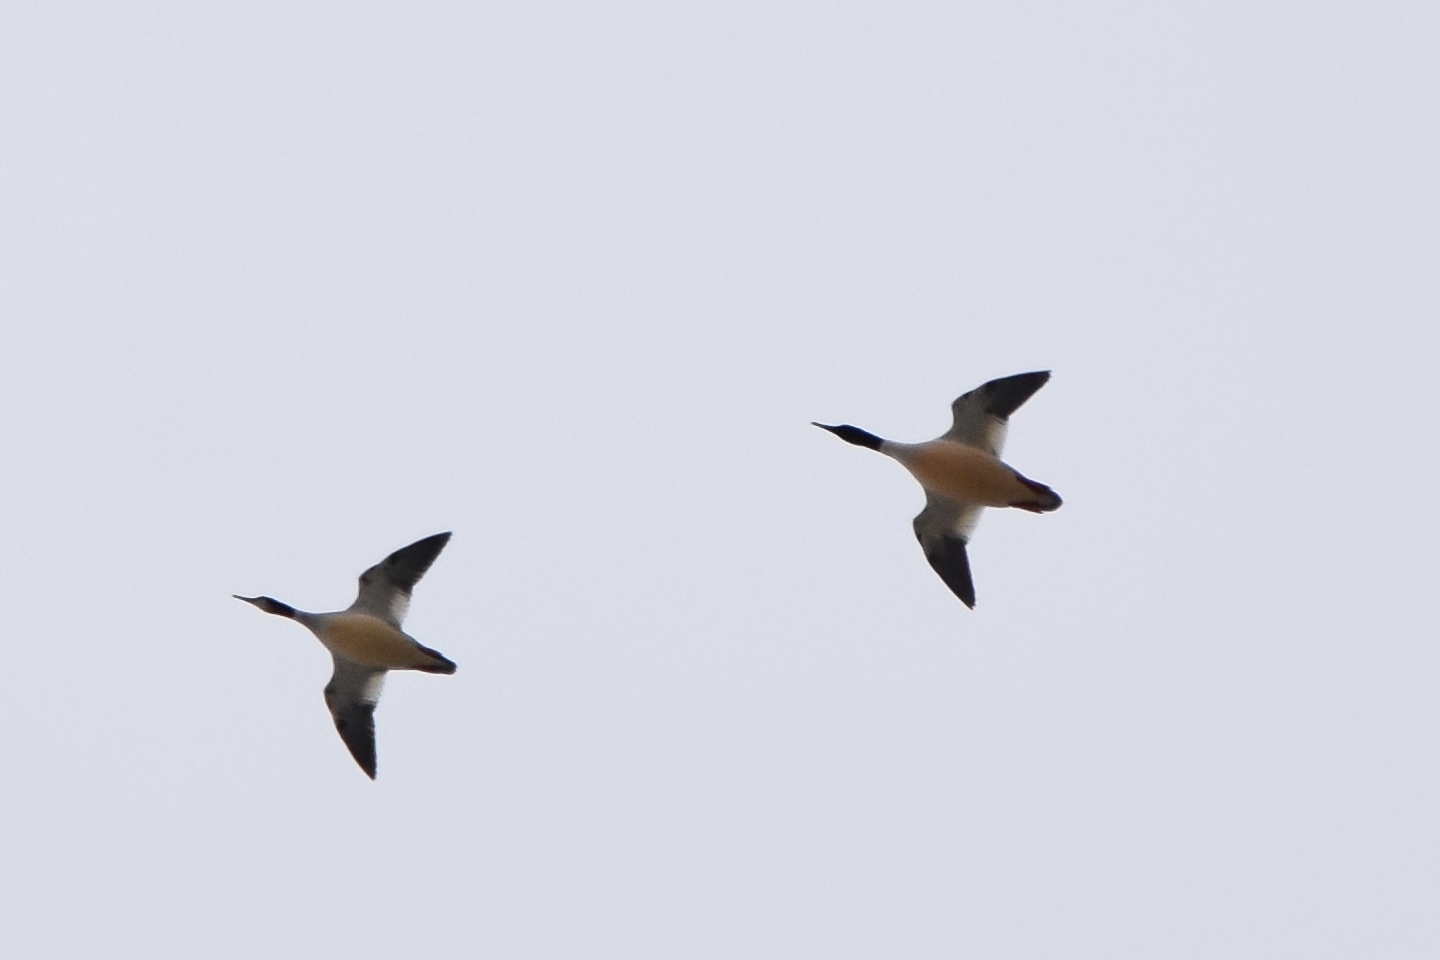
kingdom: Animalia
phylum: Chordata
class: Aves
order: Anseriformes
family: Anatidae
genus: Mergus
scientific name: Mergus merganser
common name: Common merganser
